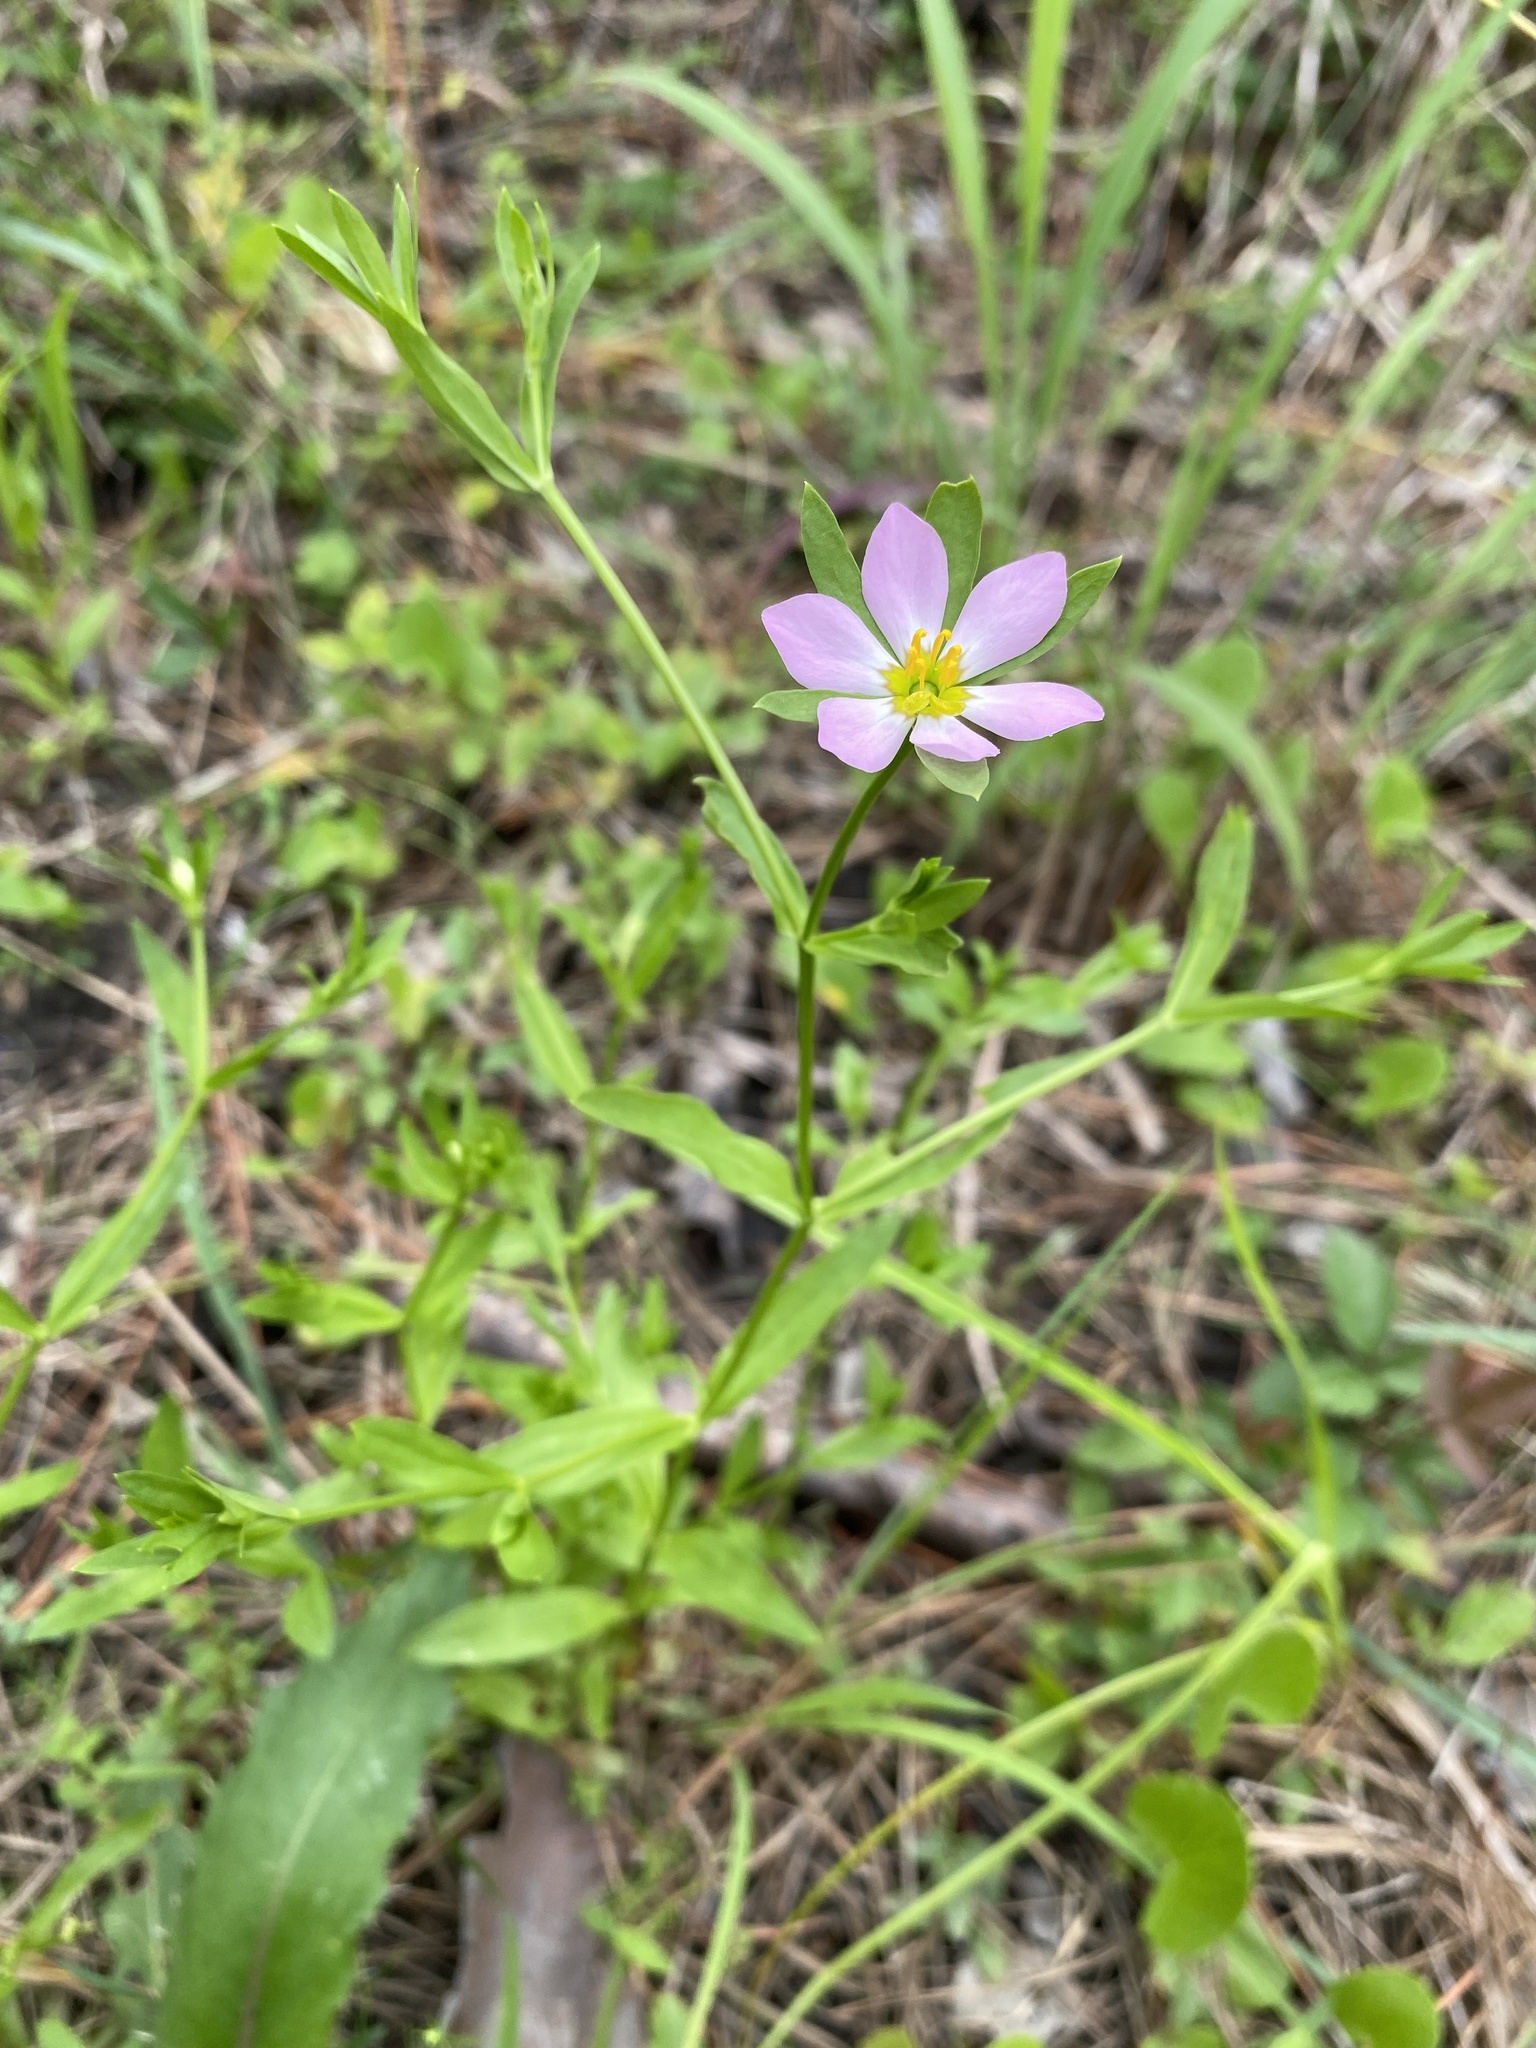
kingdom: Plantae
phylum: Tracheophyta
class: Magnoliopsida
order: Gentianales
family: Gentianaceae
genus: Sabatia
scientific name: Sabatia calycina
